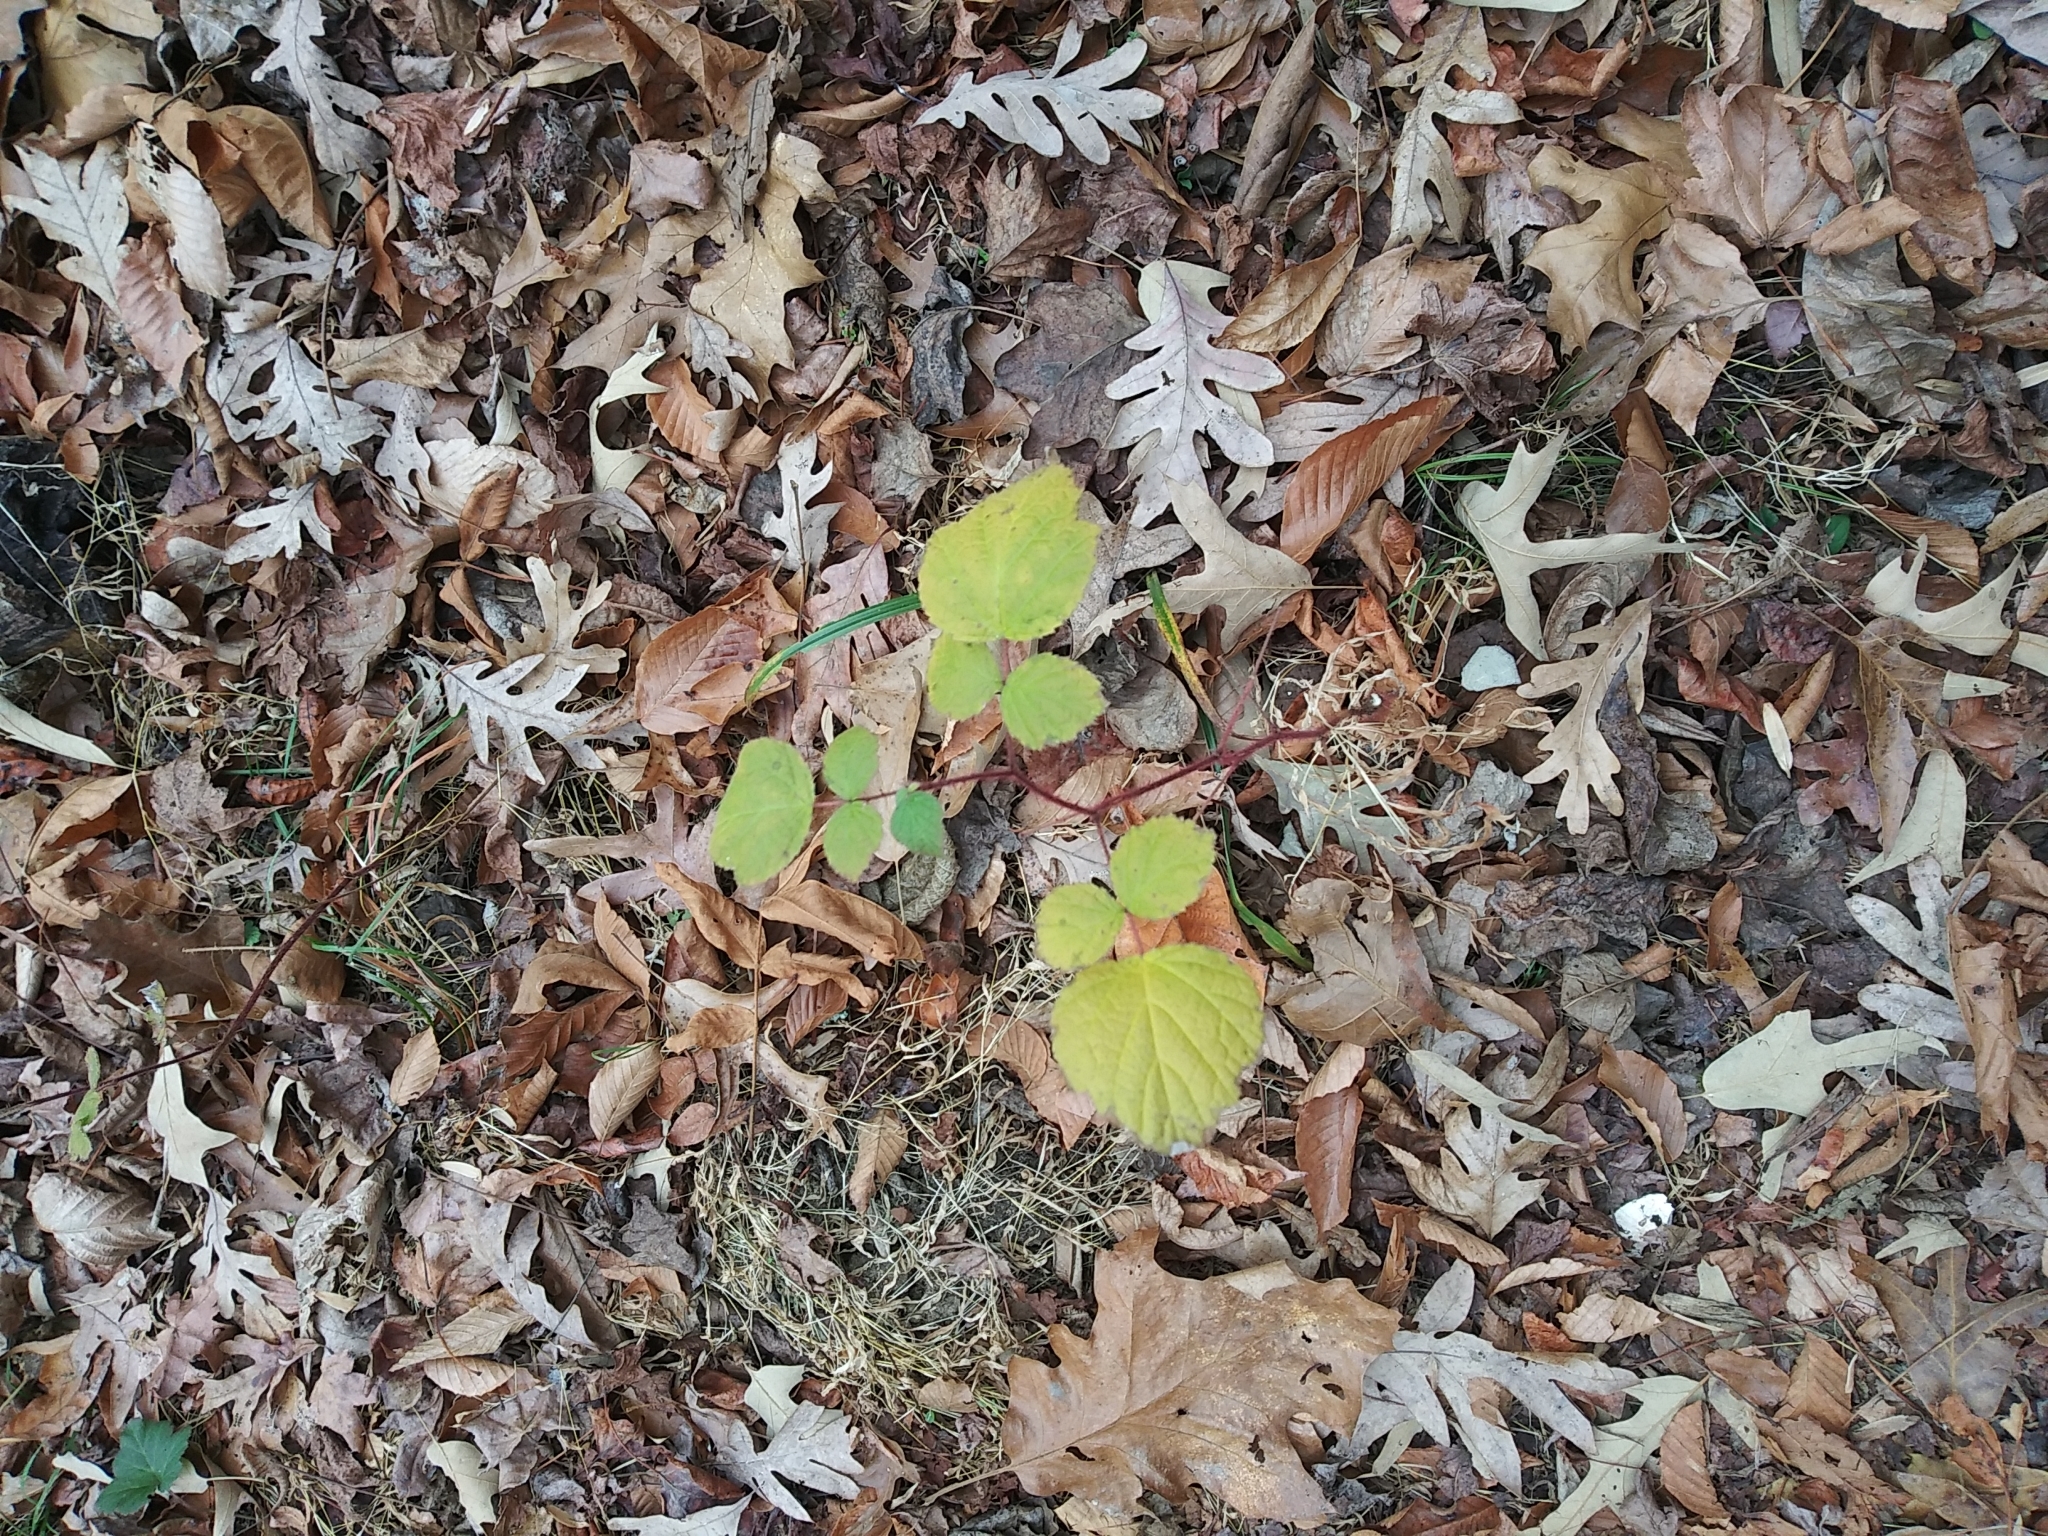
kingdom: Plantae
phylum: Tracheophyta
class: Magnoliopsida
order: Rosales
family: Rosaceae
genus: Rubus
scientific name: Rubus phoenicolasius
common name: Japanese wineberry
